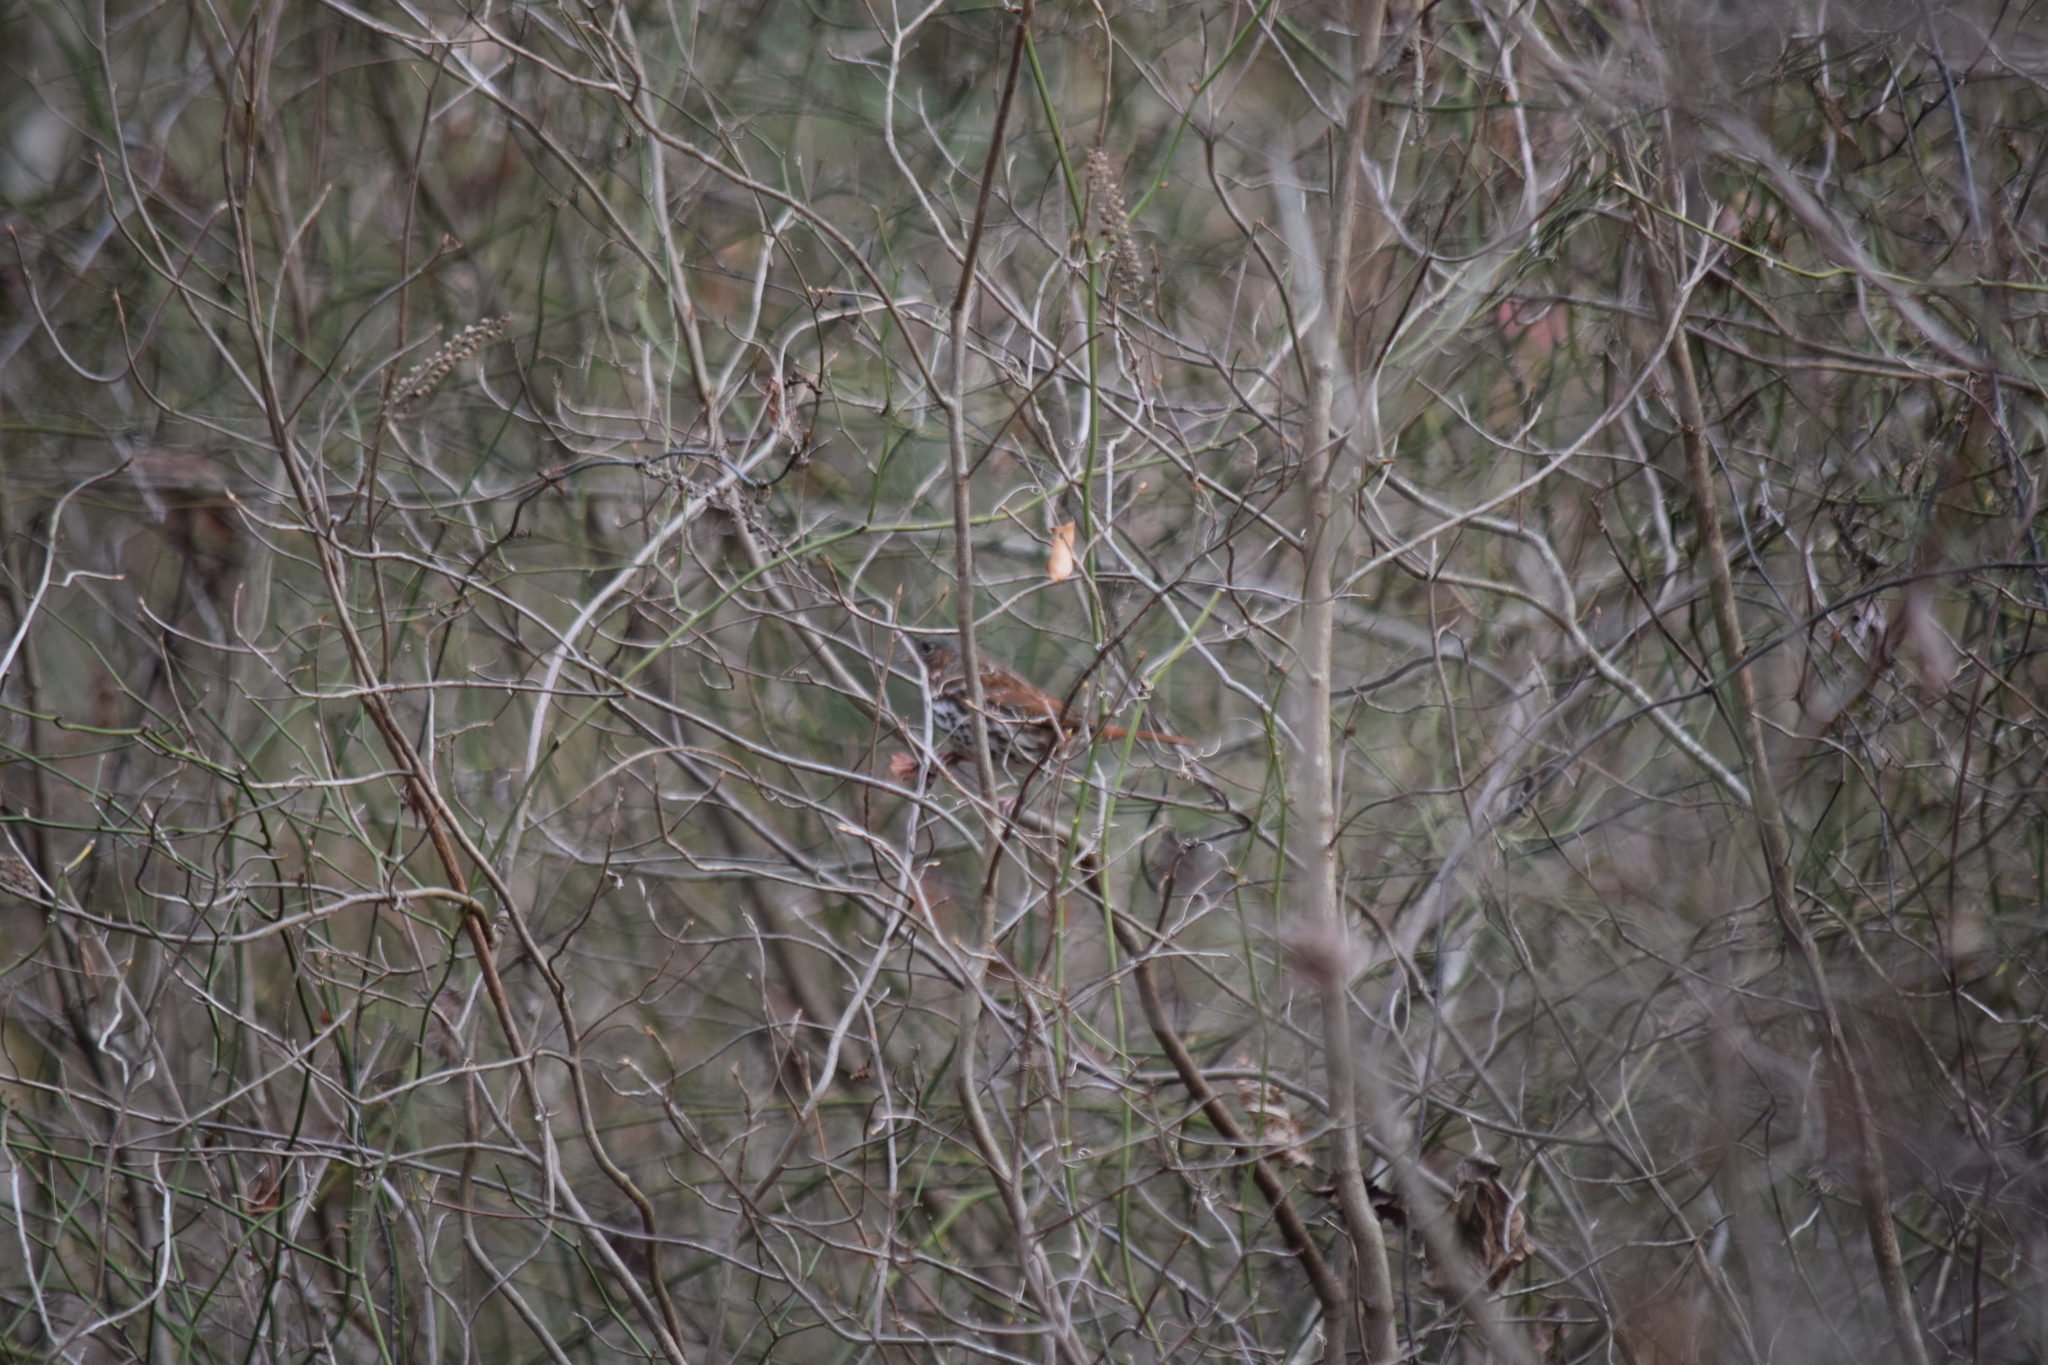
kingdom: Animalia
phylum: Chordata
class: Aves
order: Passeriformes
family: Passerellidae
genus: Passerella
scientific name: Passerella iliaca
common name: Fox sparrow
